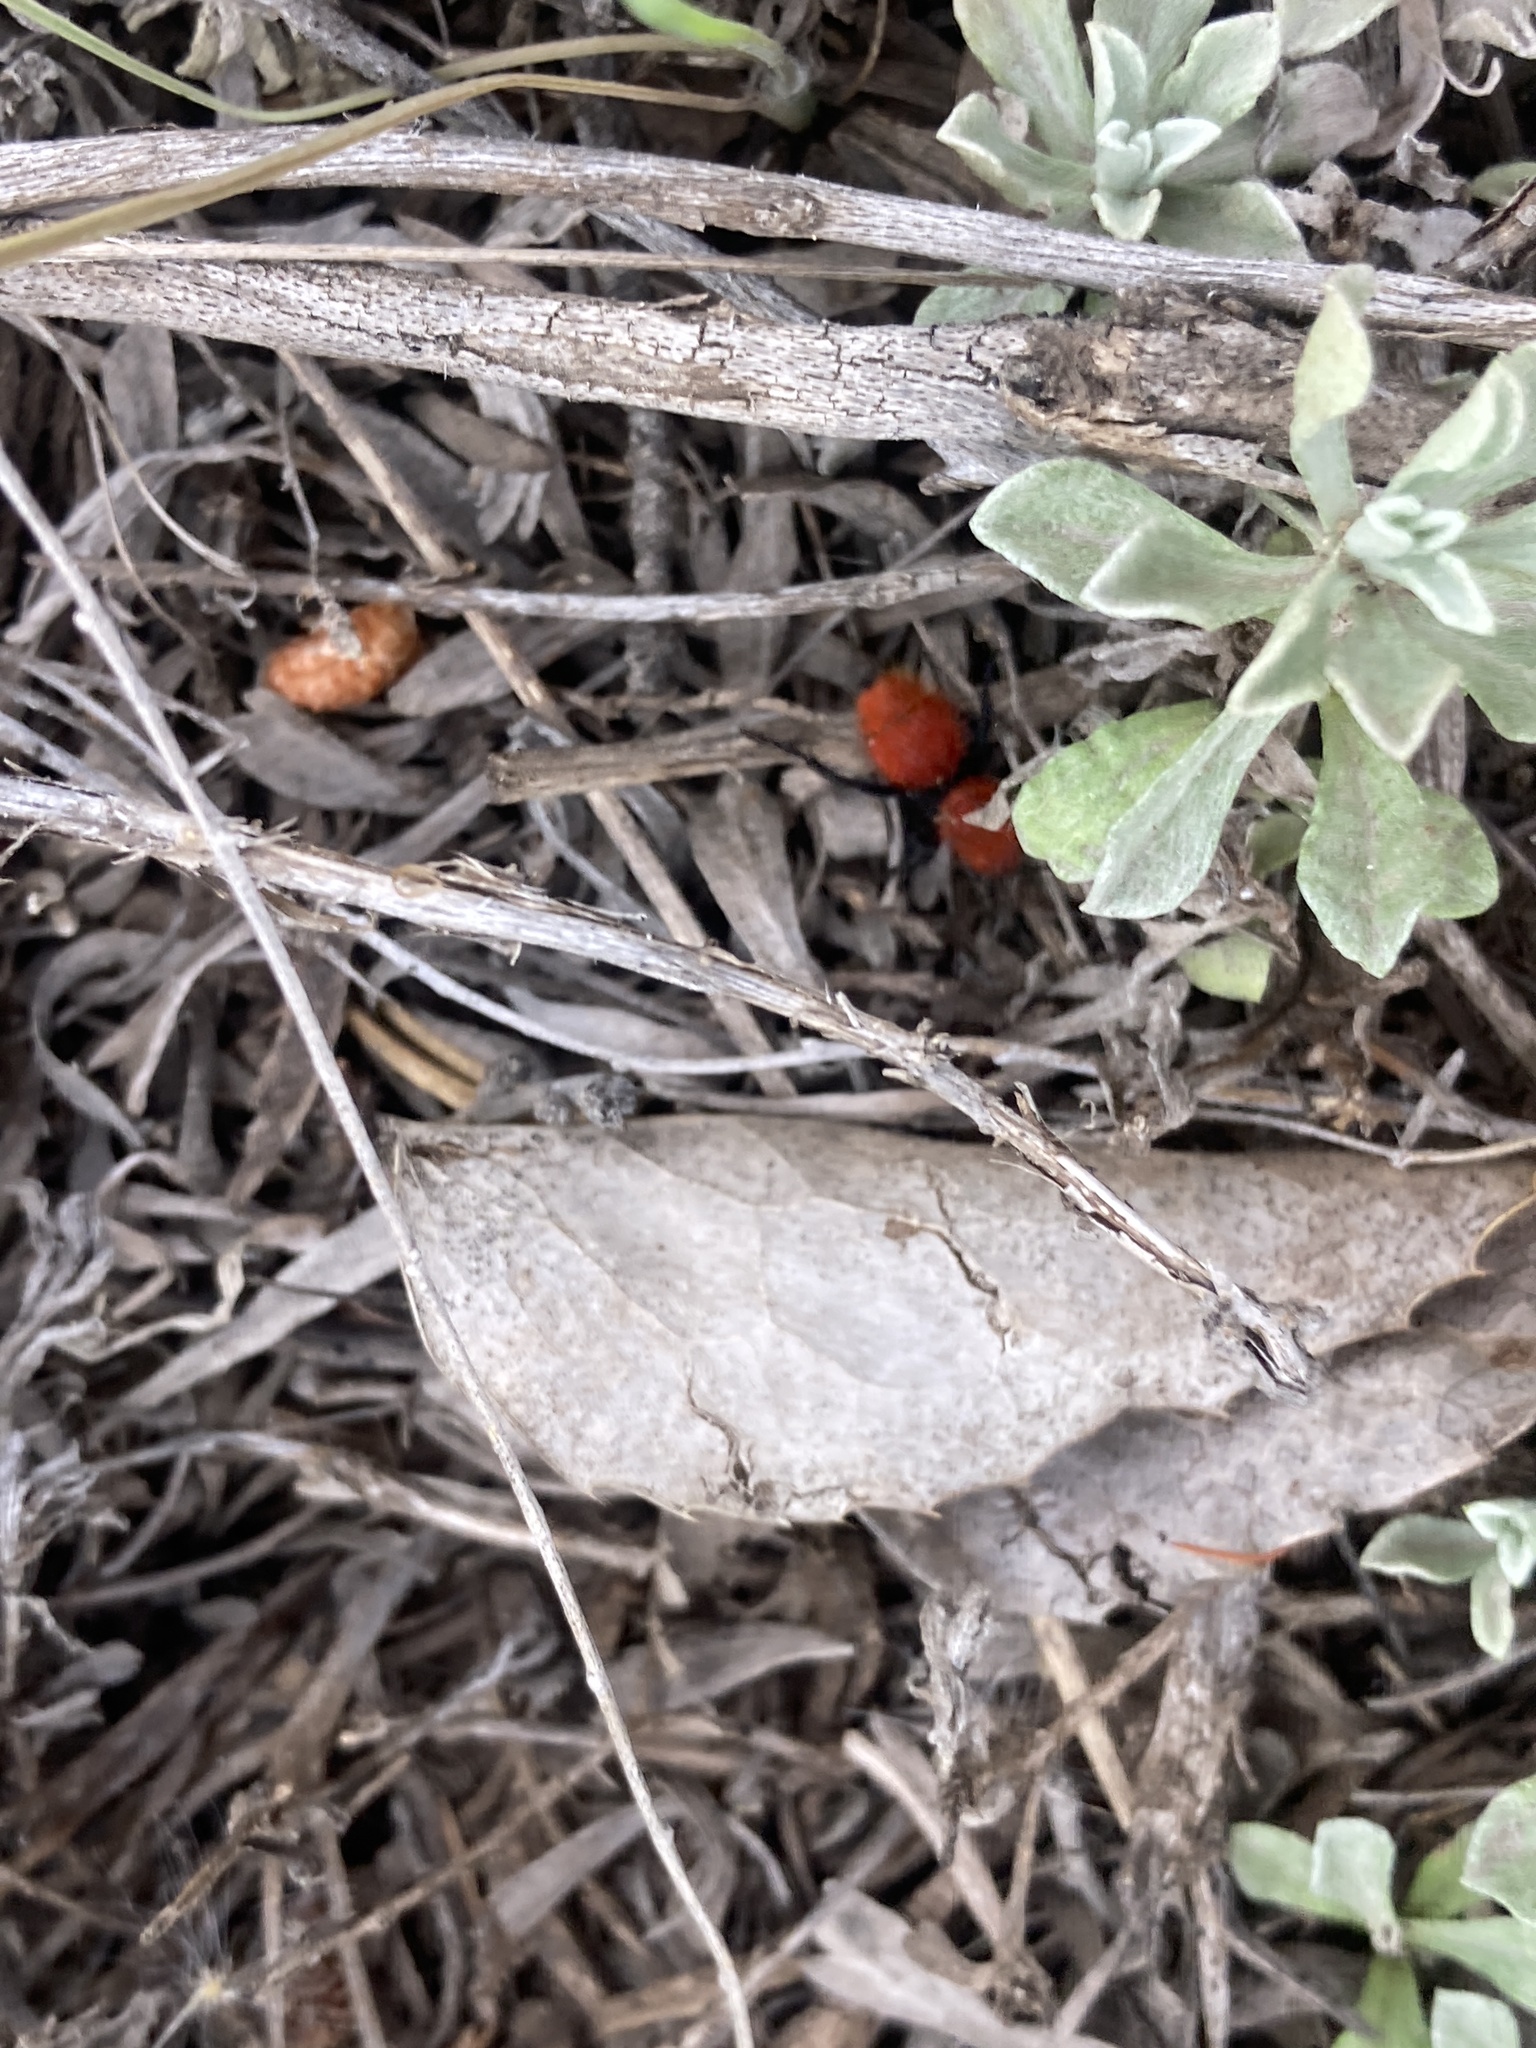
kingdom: Animalia
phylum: Arthropoda
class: Insecta
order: Hymenoptera
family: Mutillidae
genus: Dasymutilla
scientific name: Dasymutilla vestita
